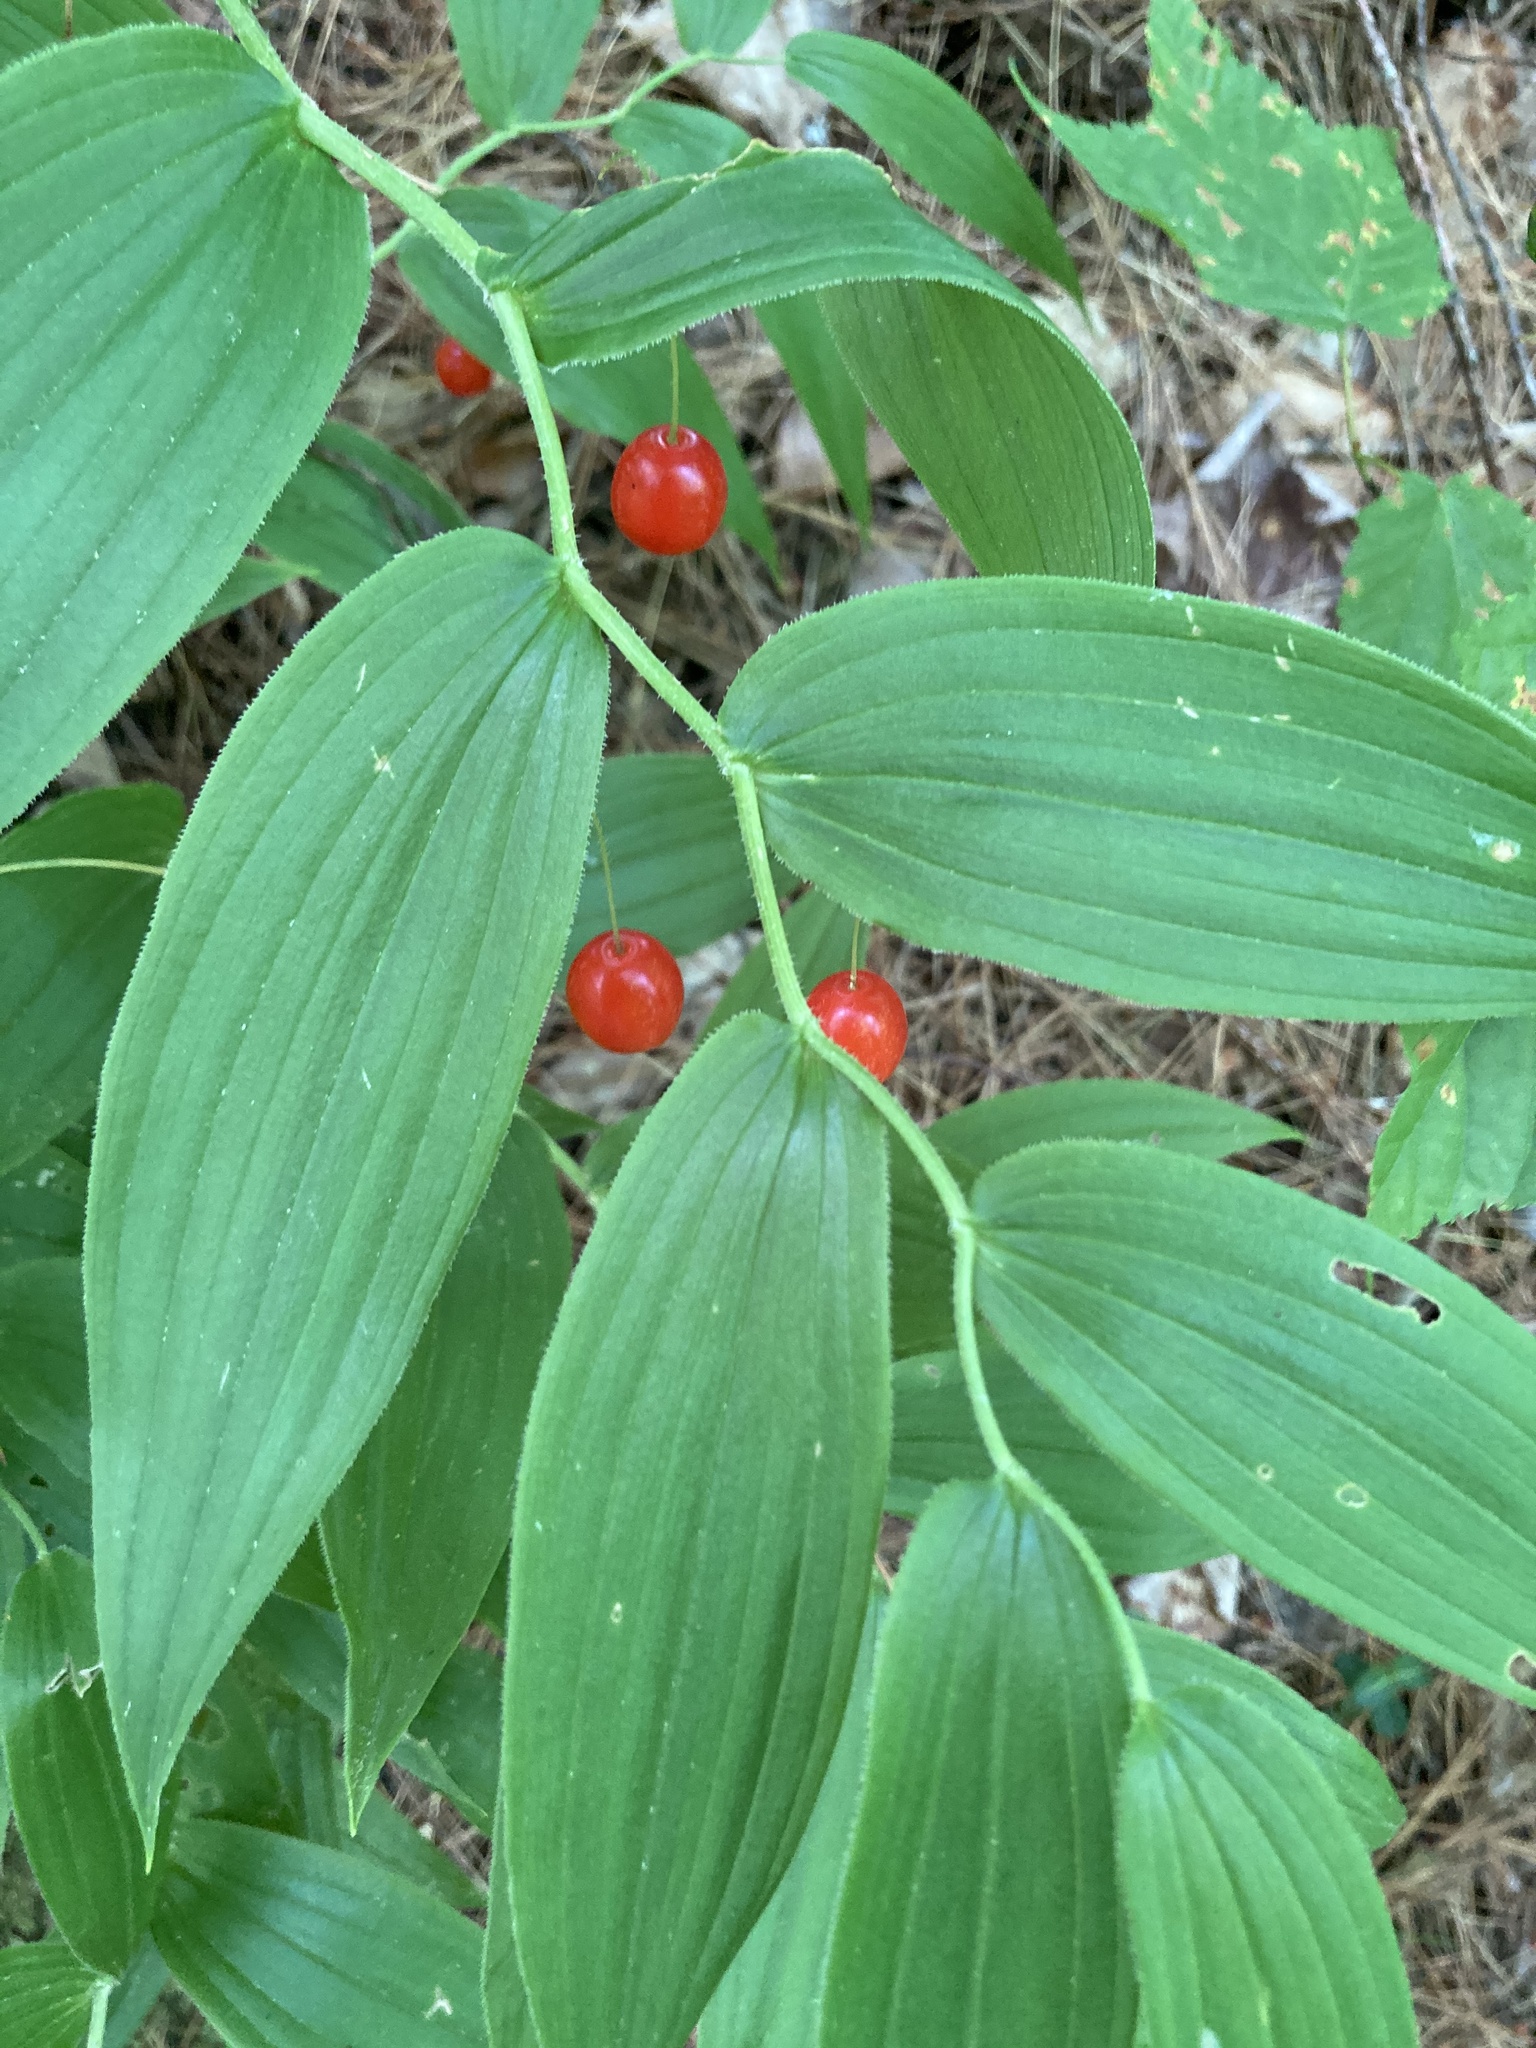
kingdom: Plantae
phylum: Tracheophyta
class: Liliopsida
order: Liliales
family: Liliaceae
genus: Streptopus
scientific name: Streptopus lanceolatus
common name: Rose mandarin
